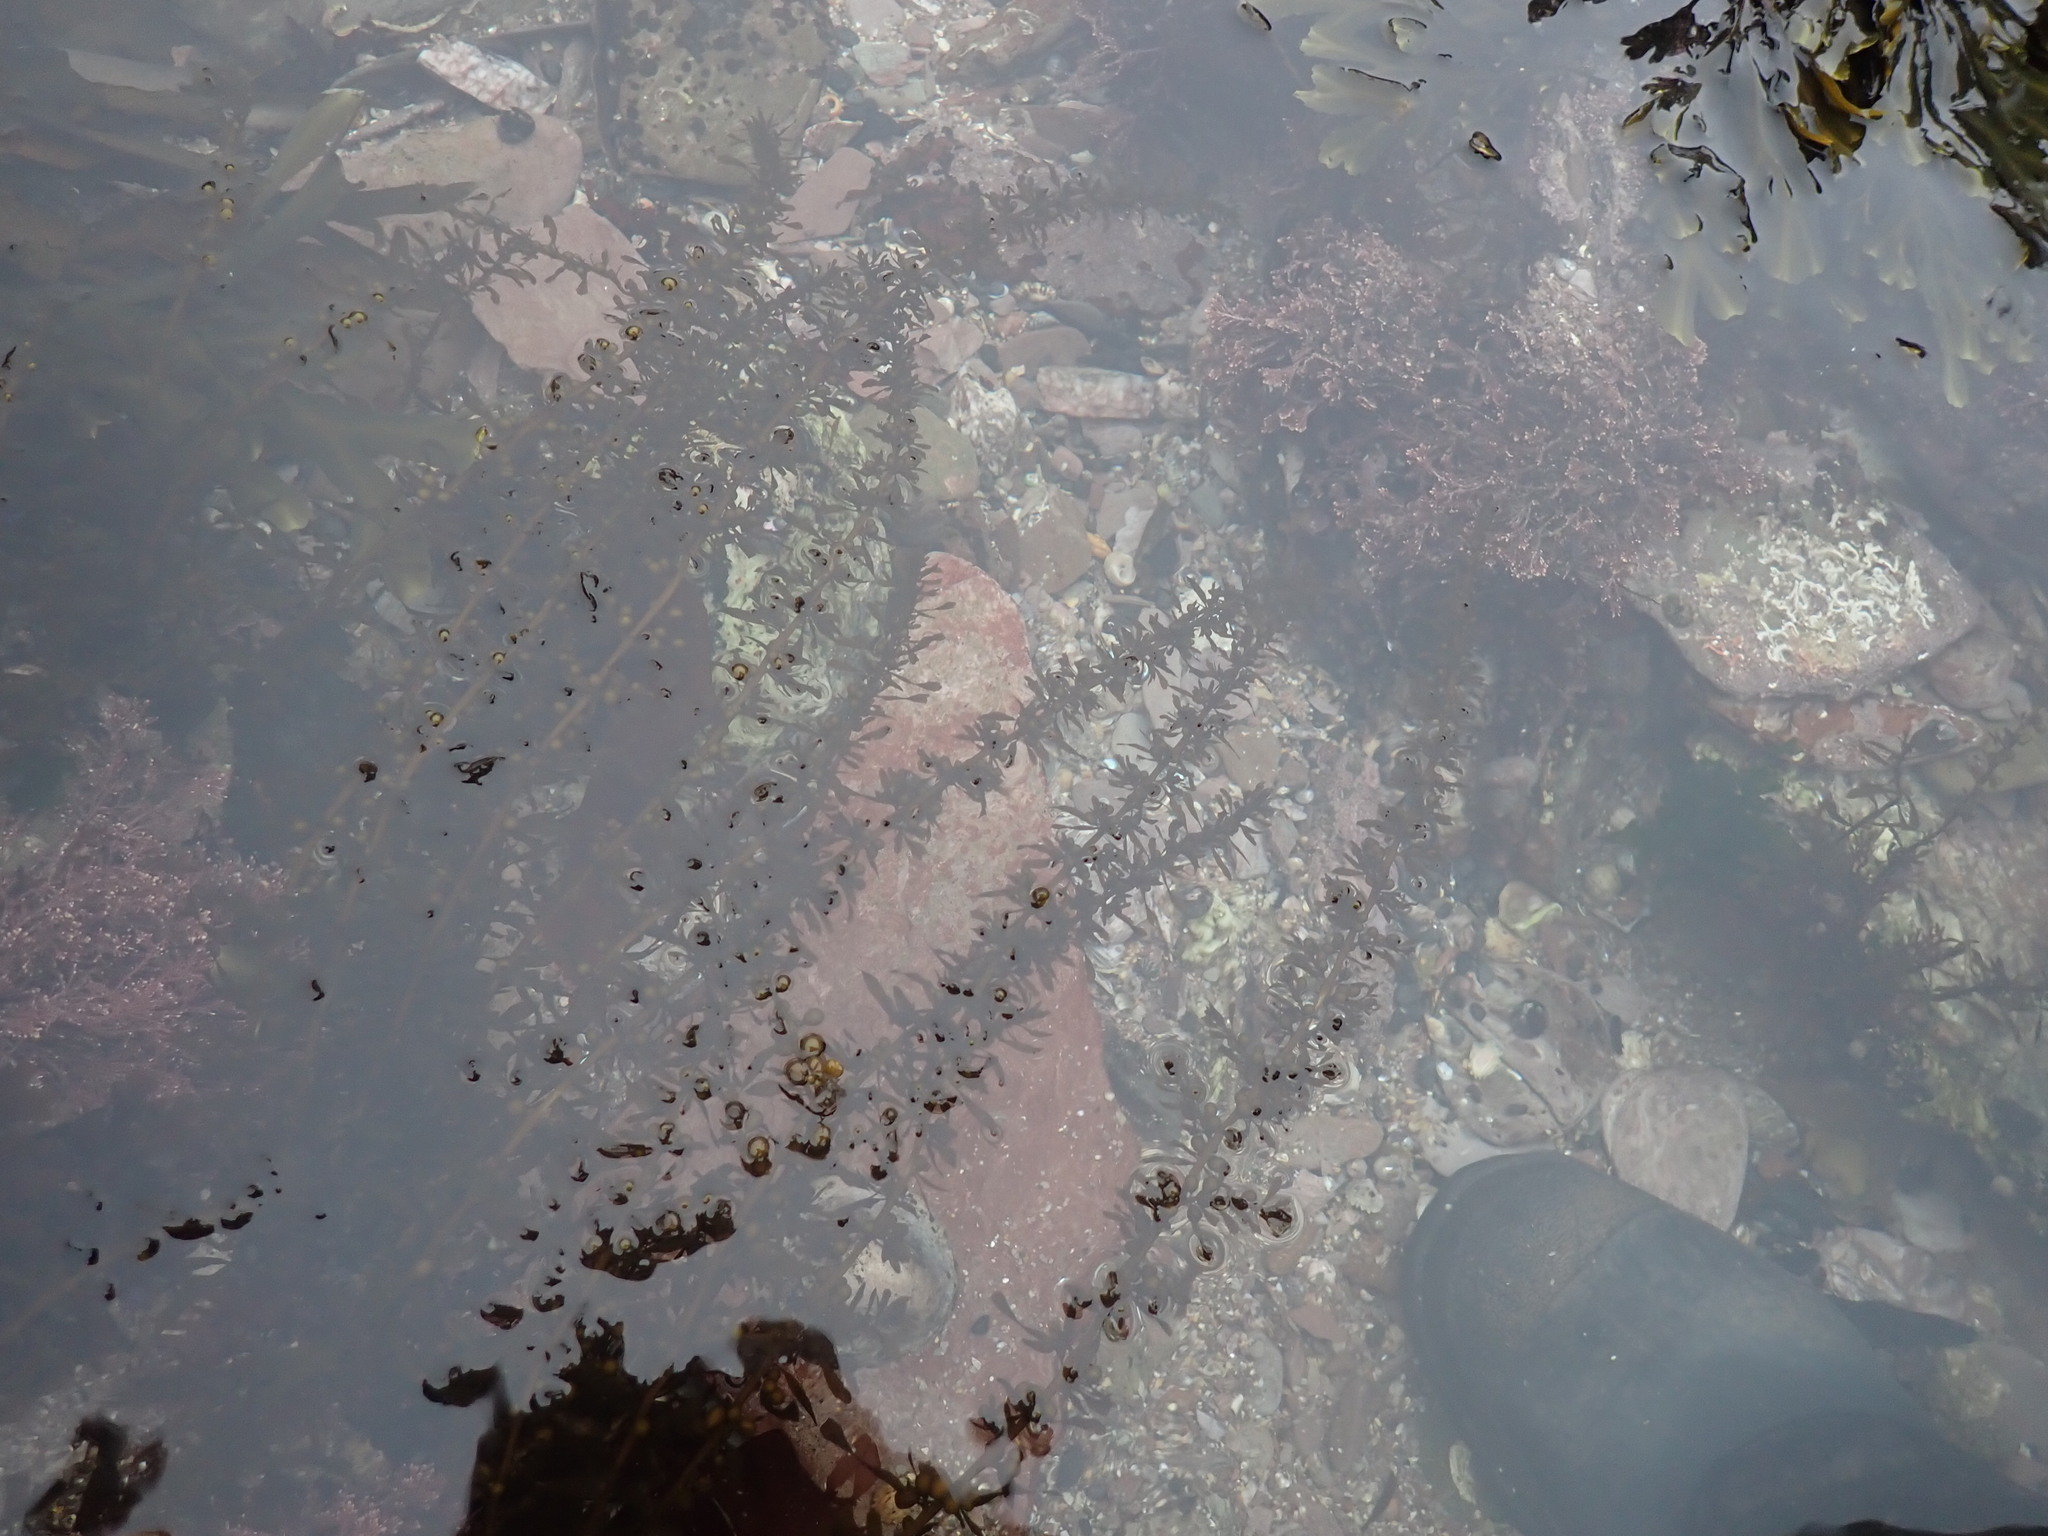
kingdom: Chromista
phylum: Ochrophyta
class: Phaeophyceae
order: Fucales
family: Sargassaceae
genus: Sargassum
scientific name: Sargassum muticum
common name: Japweed
